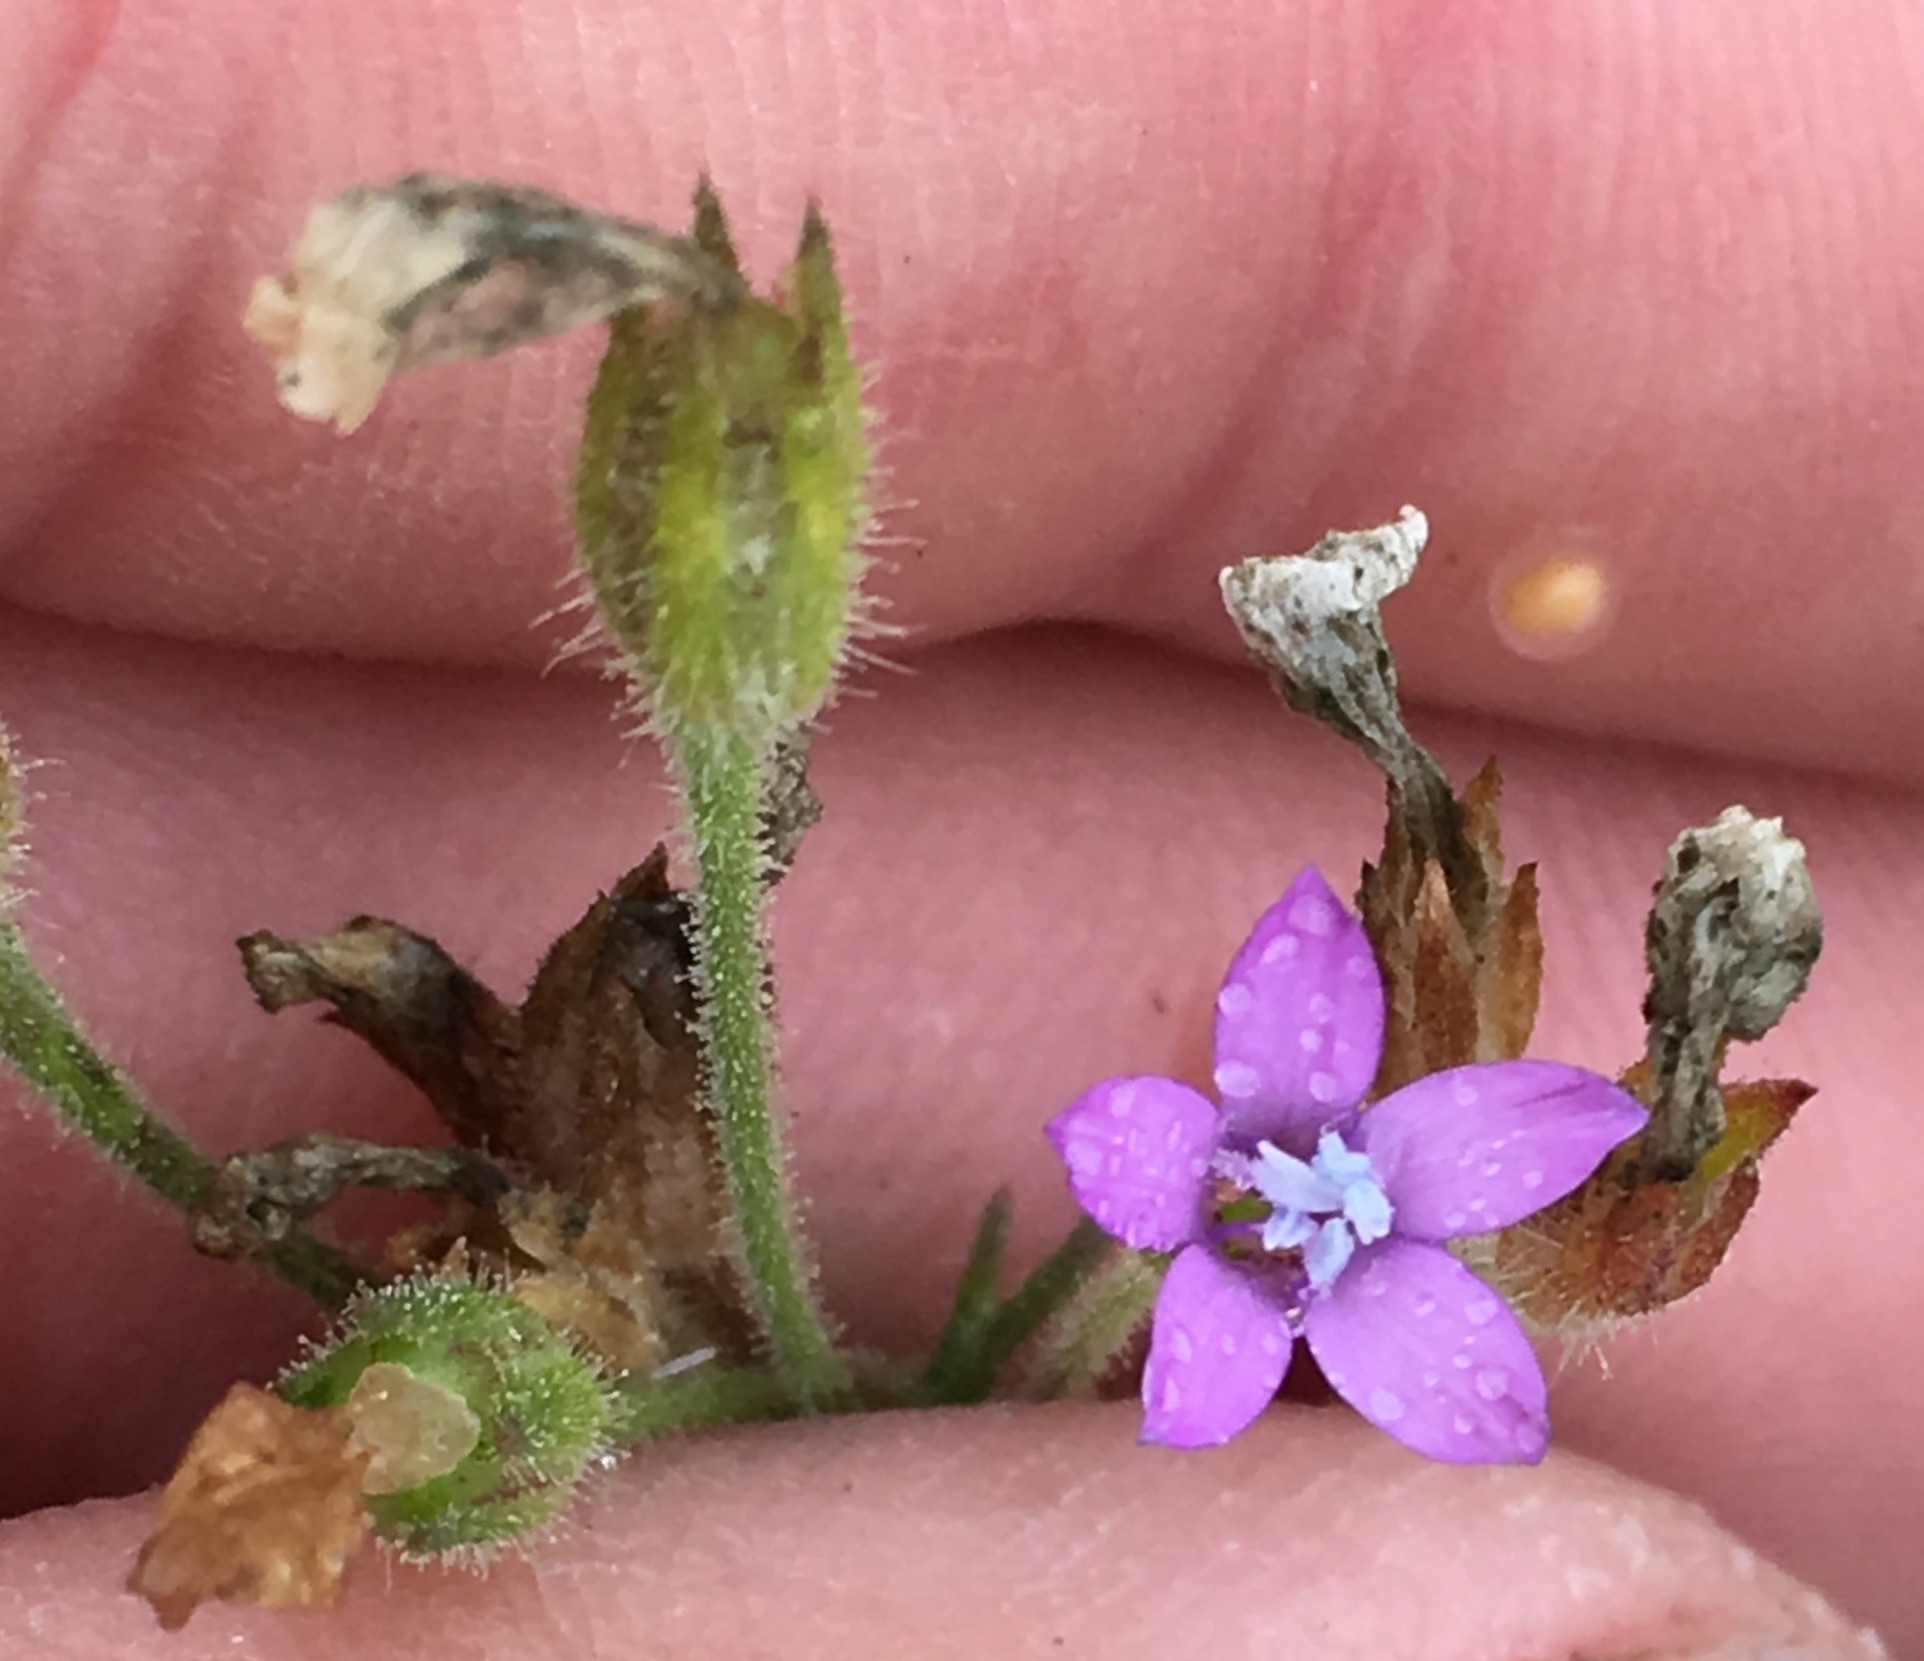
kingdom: Plantae
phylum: Tracheophyta
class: Magnoliopsida
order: Ericales
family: Polemoniaceae
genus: Gilia
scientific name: Gilia nevinii
